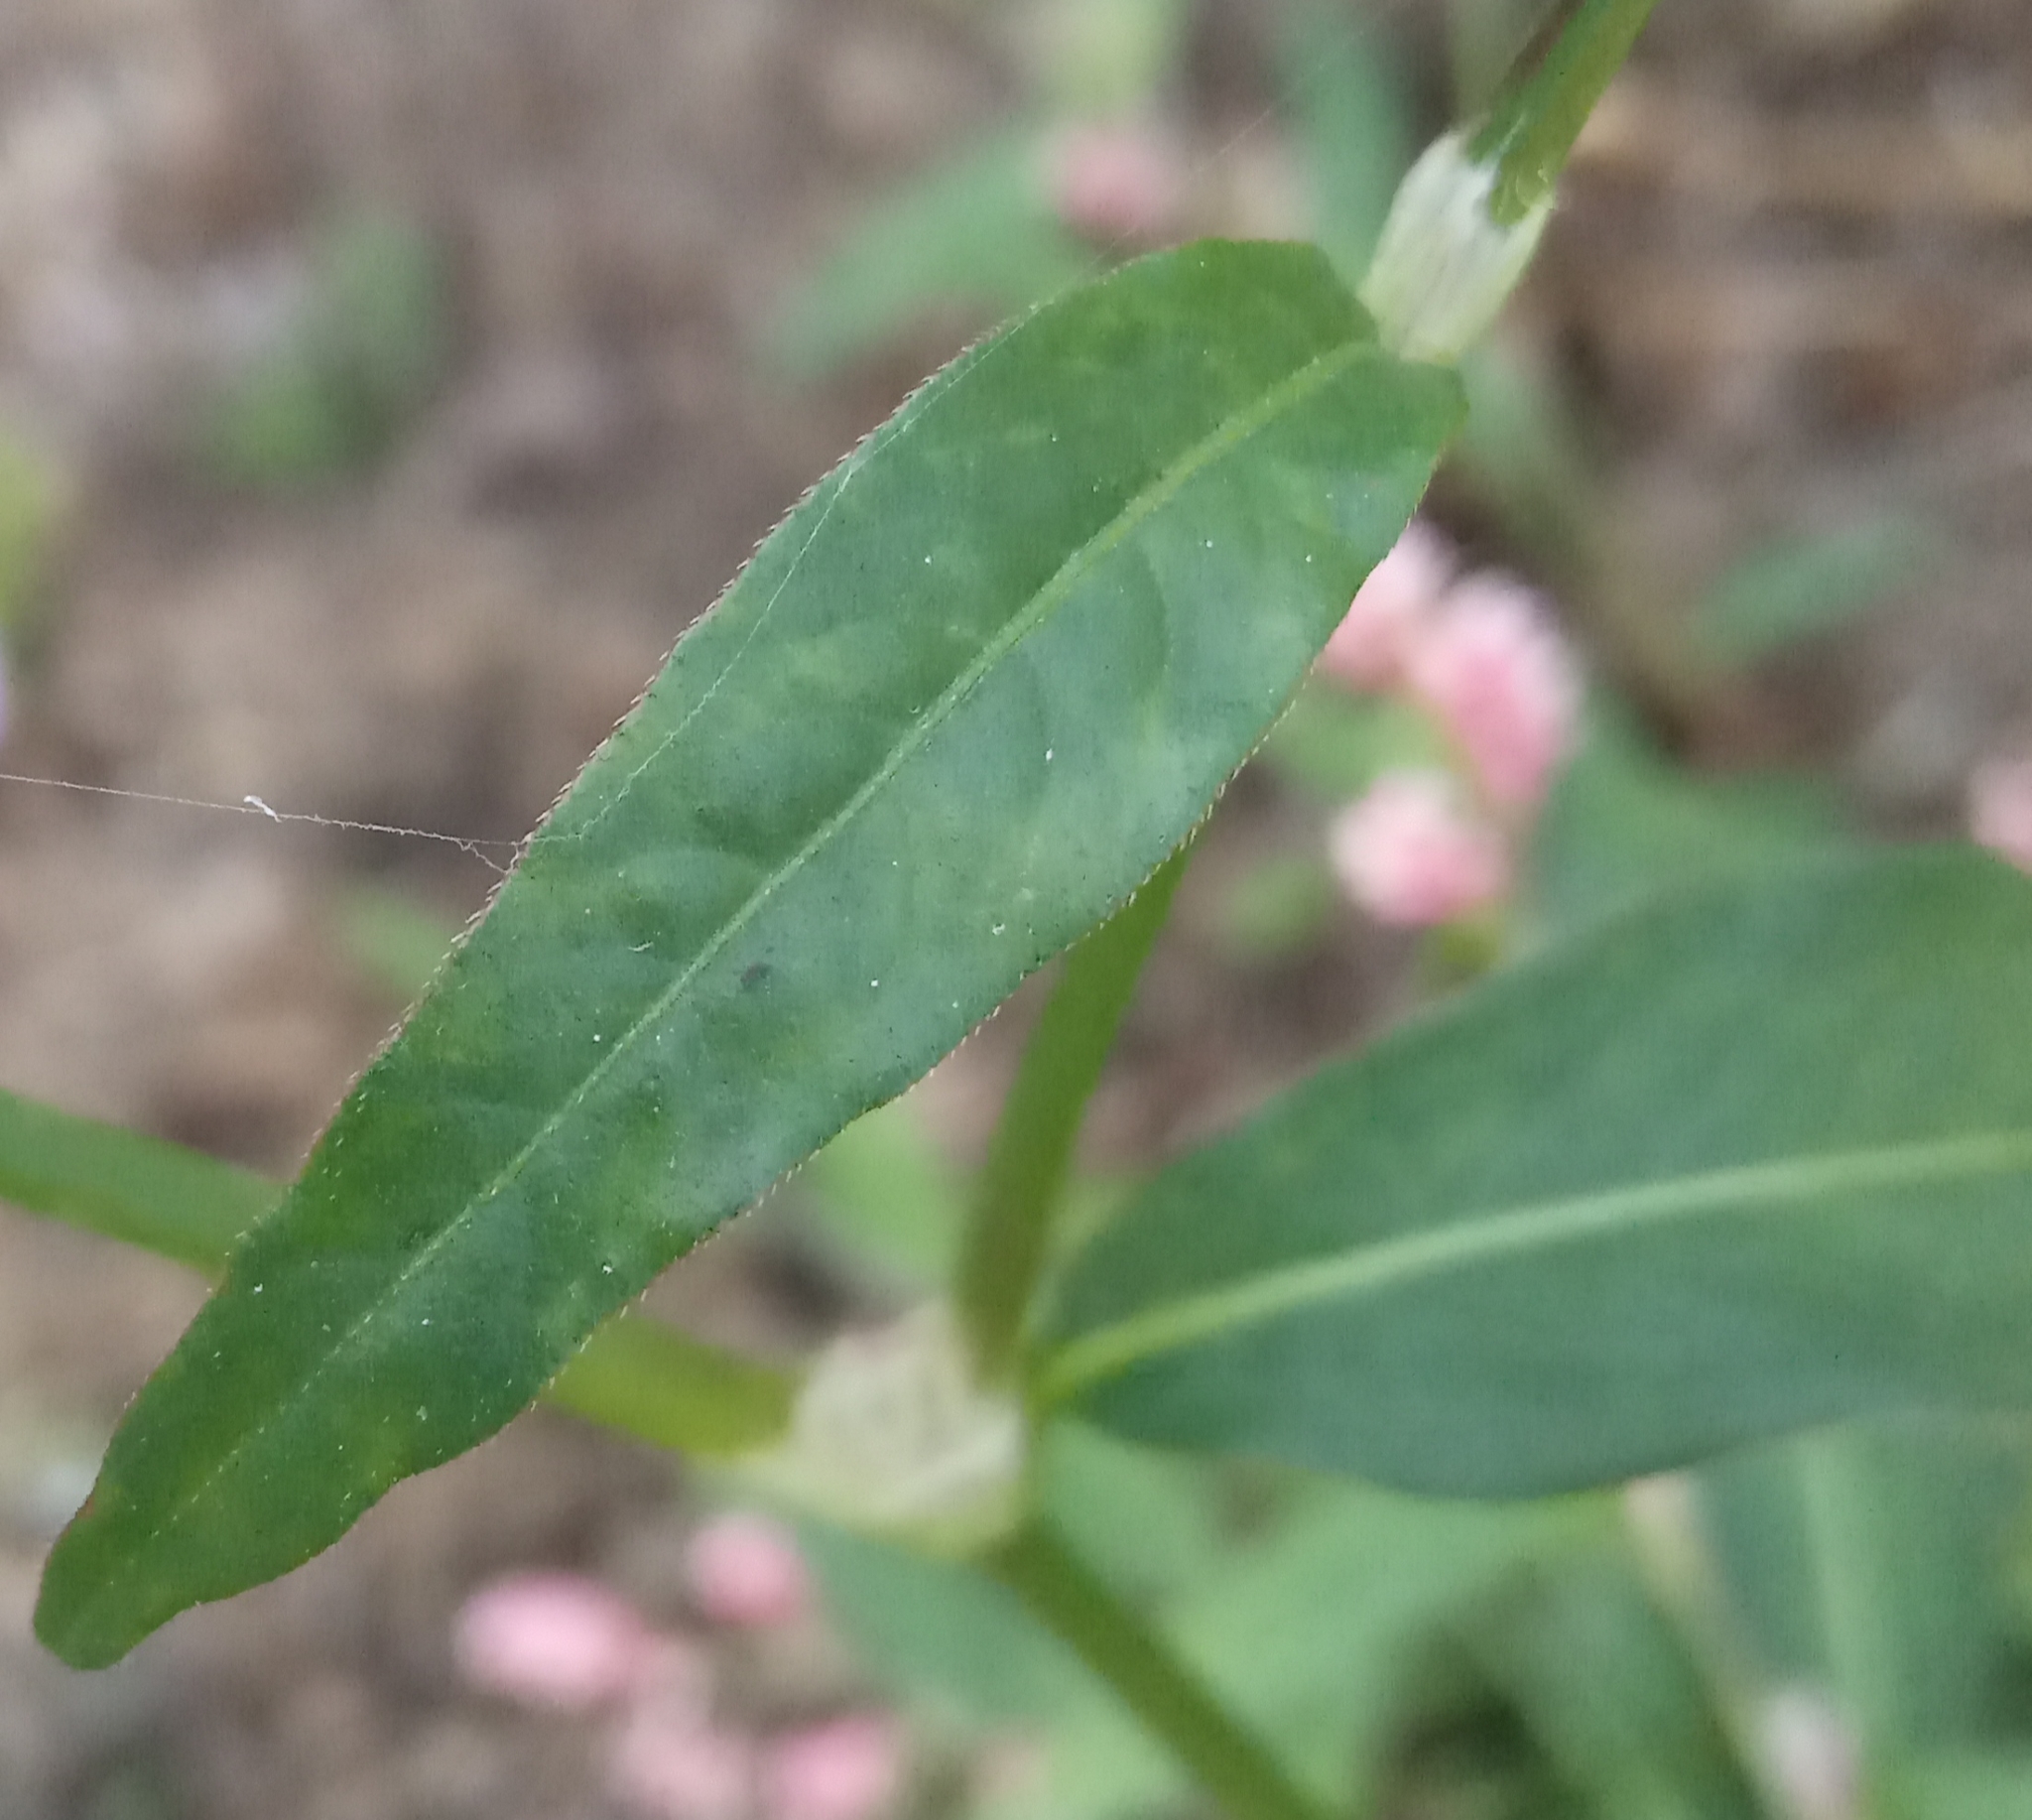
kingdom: Plantae
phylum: Tracheophyta
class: Magnoliopsida
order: Caryophyllales
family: Polygonaceae
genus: Persicaria
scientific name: Persicaria maculosa
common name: Redshank
